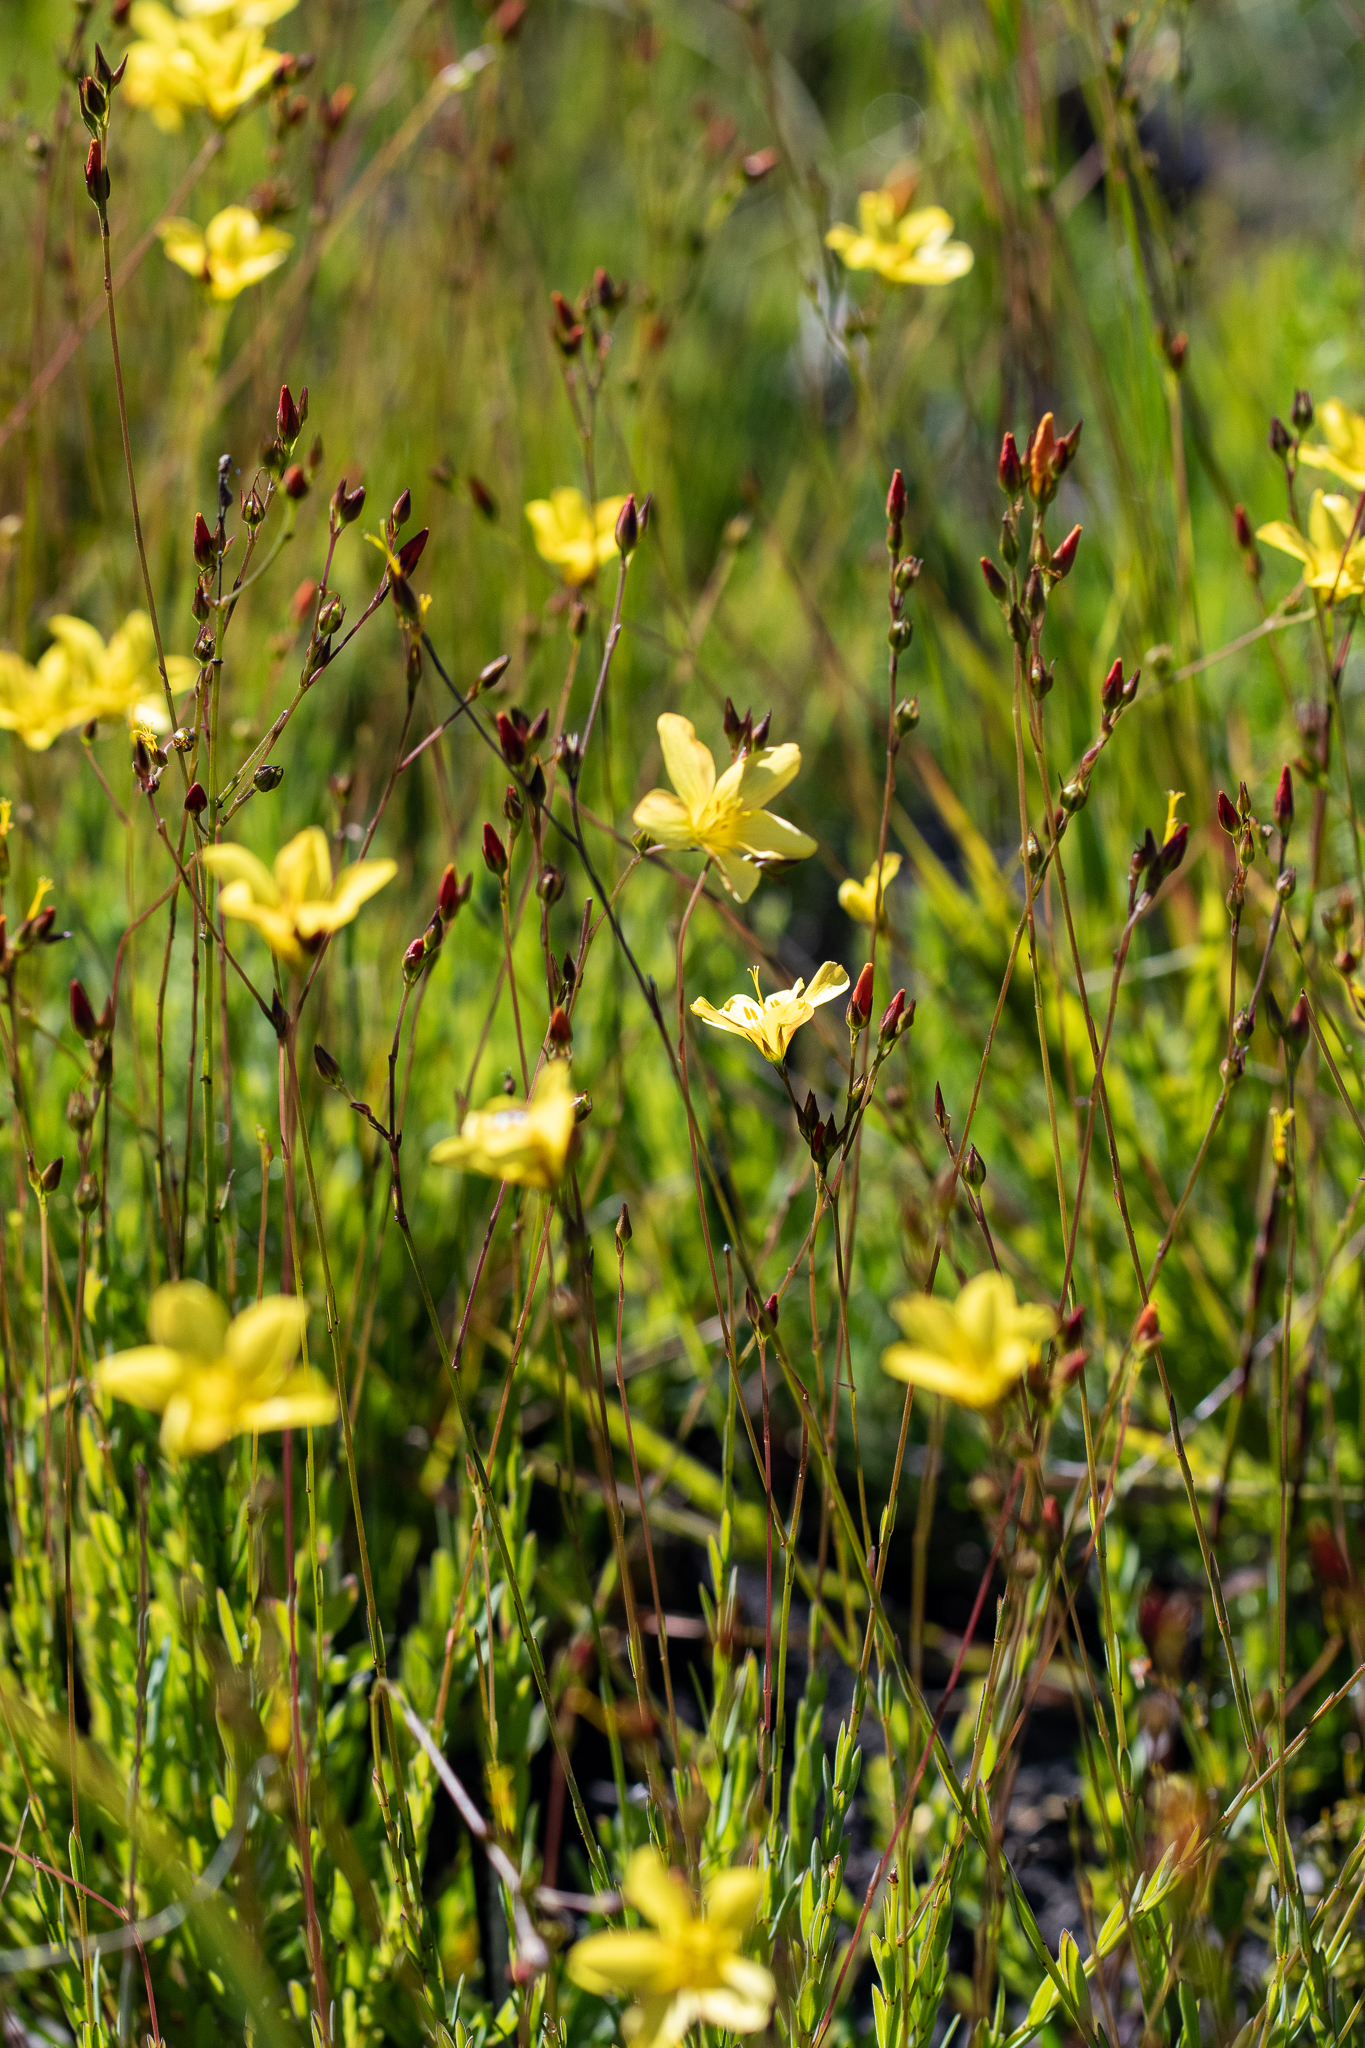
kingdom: Plantae
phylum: Tracheophyta
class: Magnoliopsida
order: Malpighiales
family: Linaceae
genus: Linum
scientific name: Linum africanum
